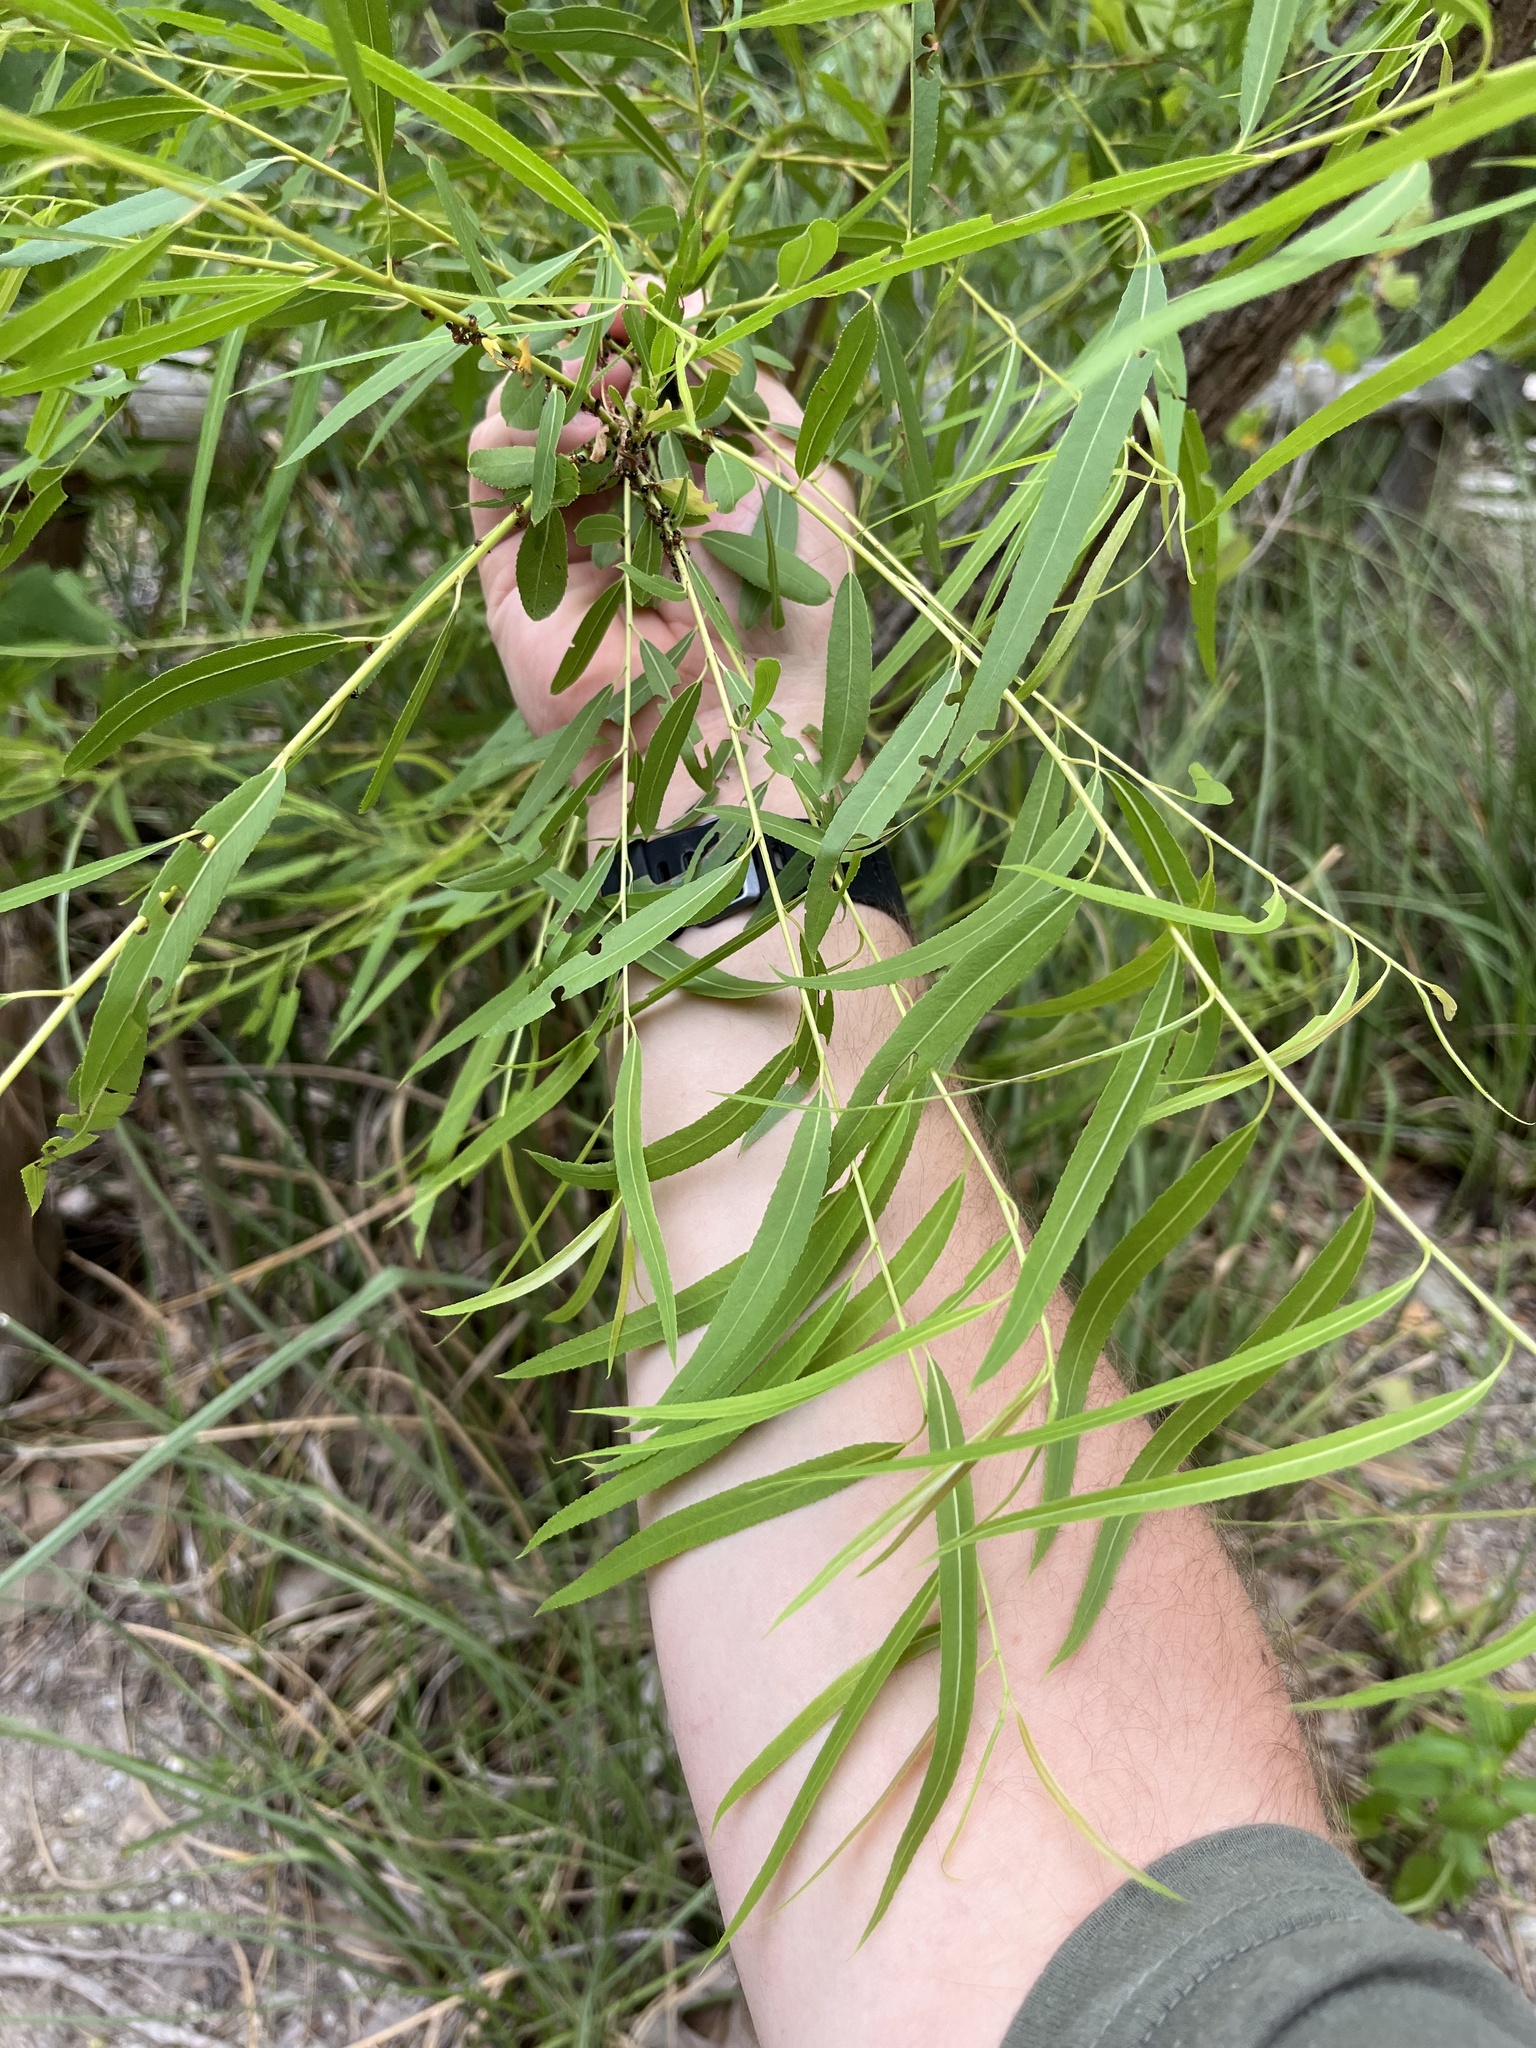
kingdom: Plantae
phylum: Tracheophyta
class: Magnoliopsida
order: Malpighiales
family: Salicaceae
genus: Salix
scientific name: Salix nigra
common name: Black willow
